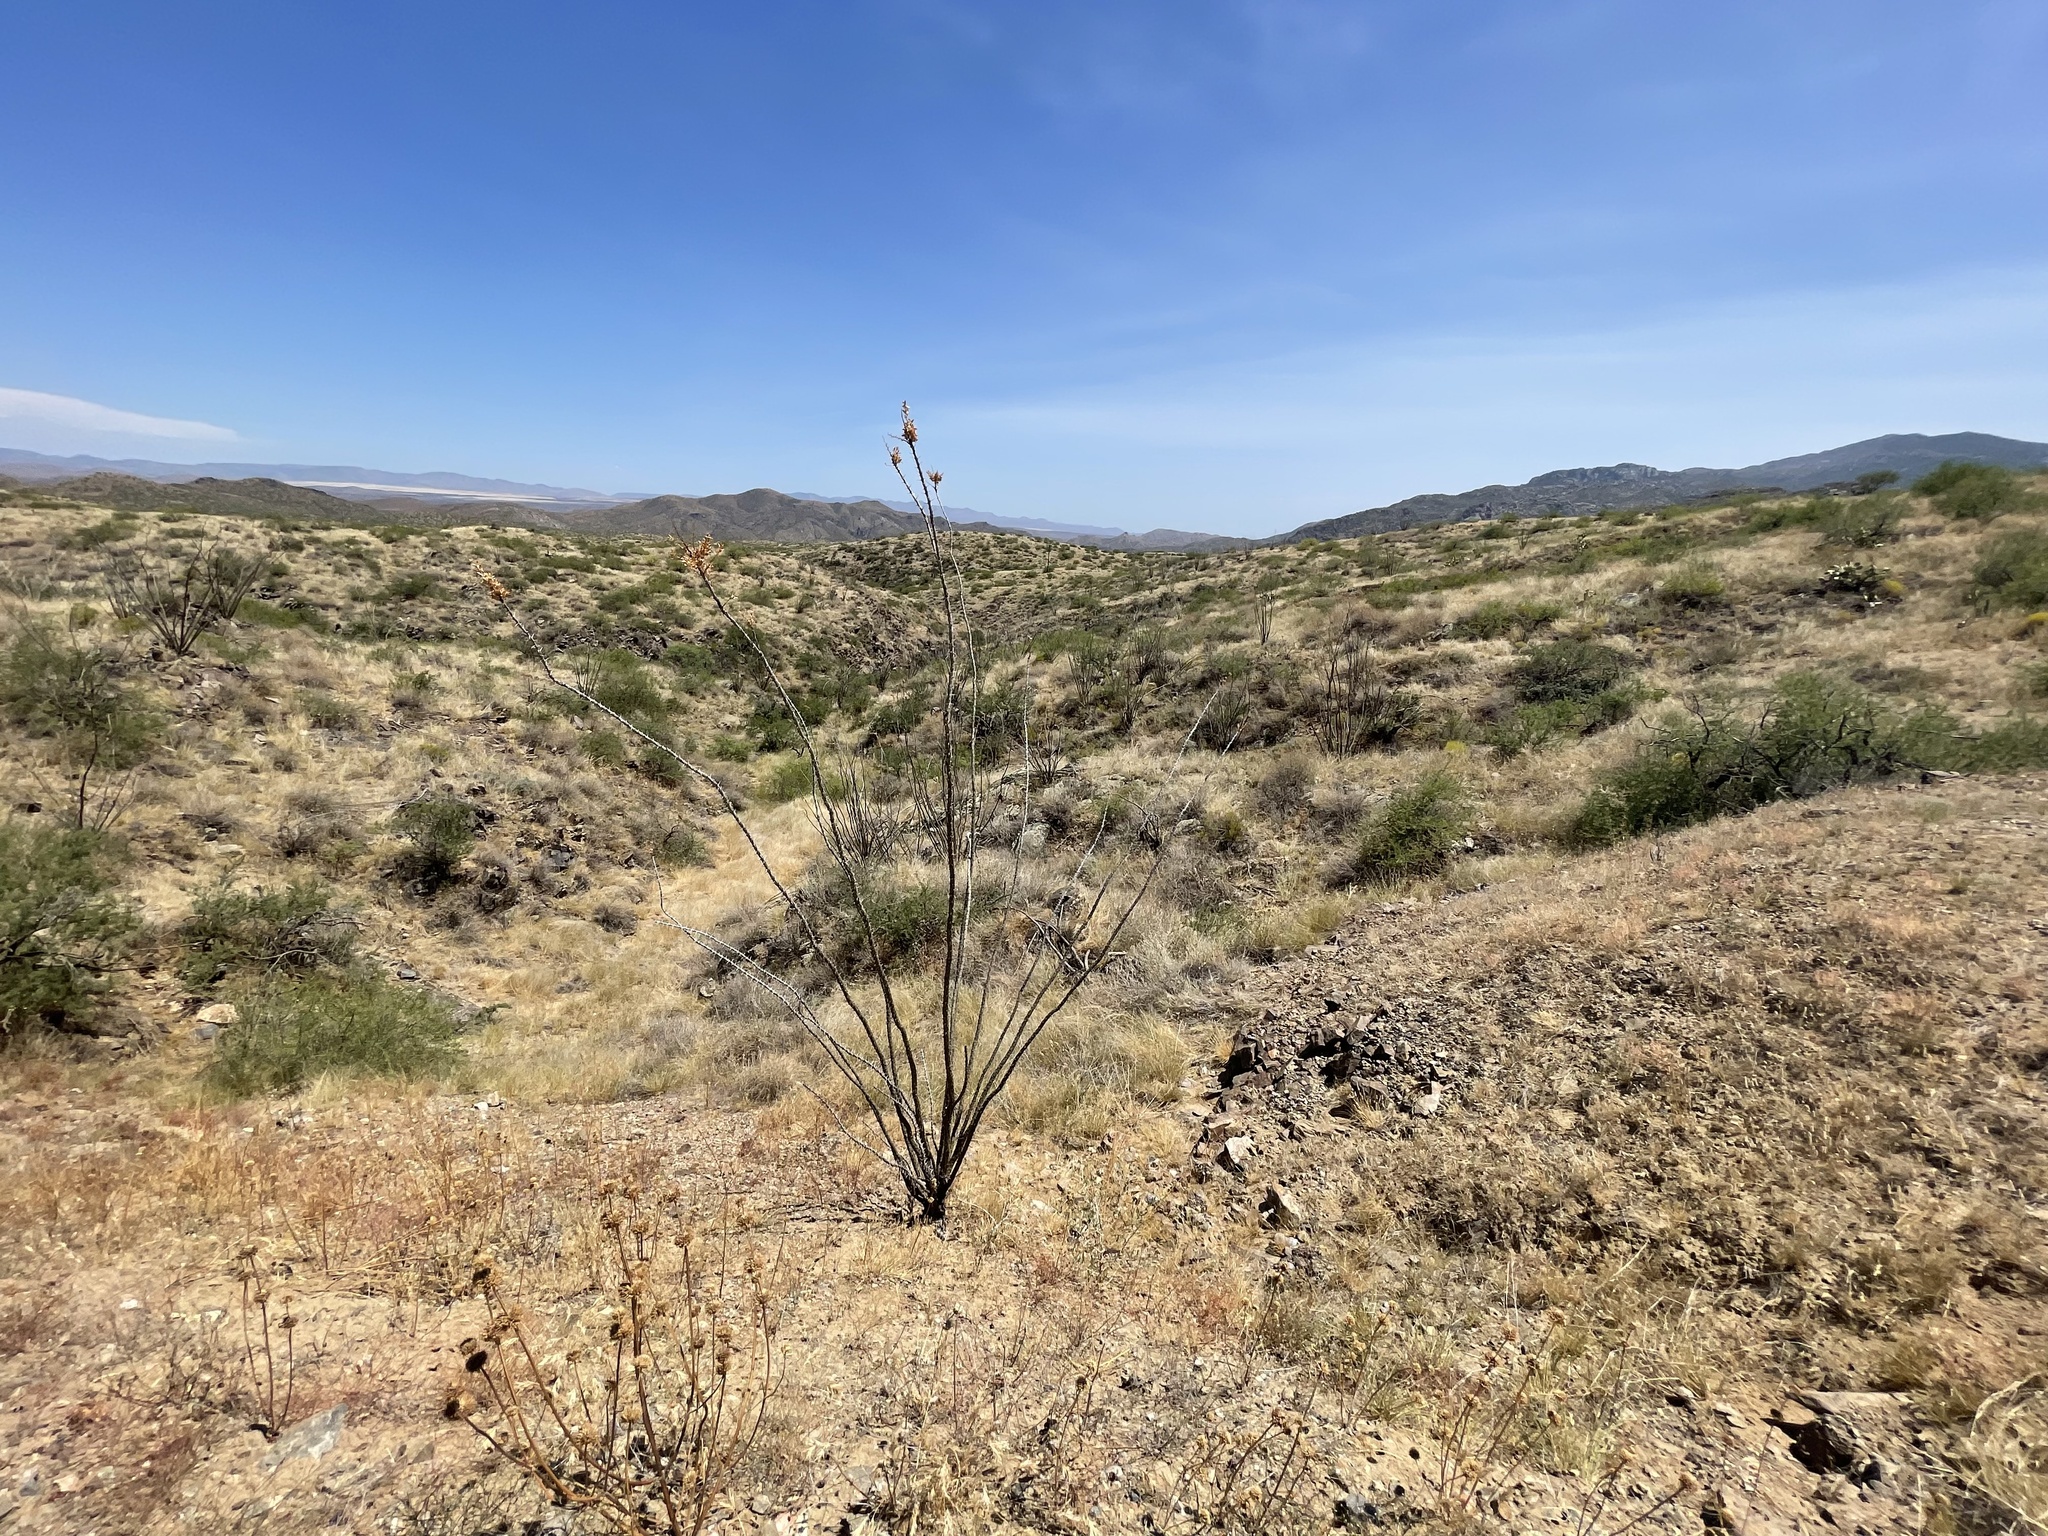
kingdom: Plantae
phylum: Tracheophyta
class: Magnoliopsida
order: Ericales
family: Fouquieriaceae
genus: Fouquieria
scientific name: Fouquieria splendens
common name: Vine-cactus
